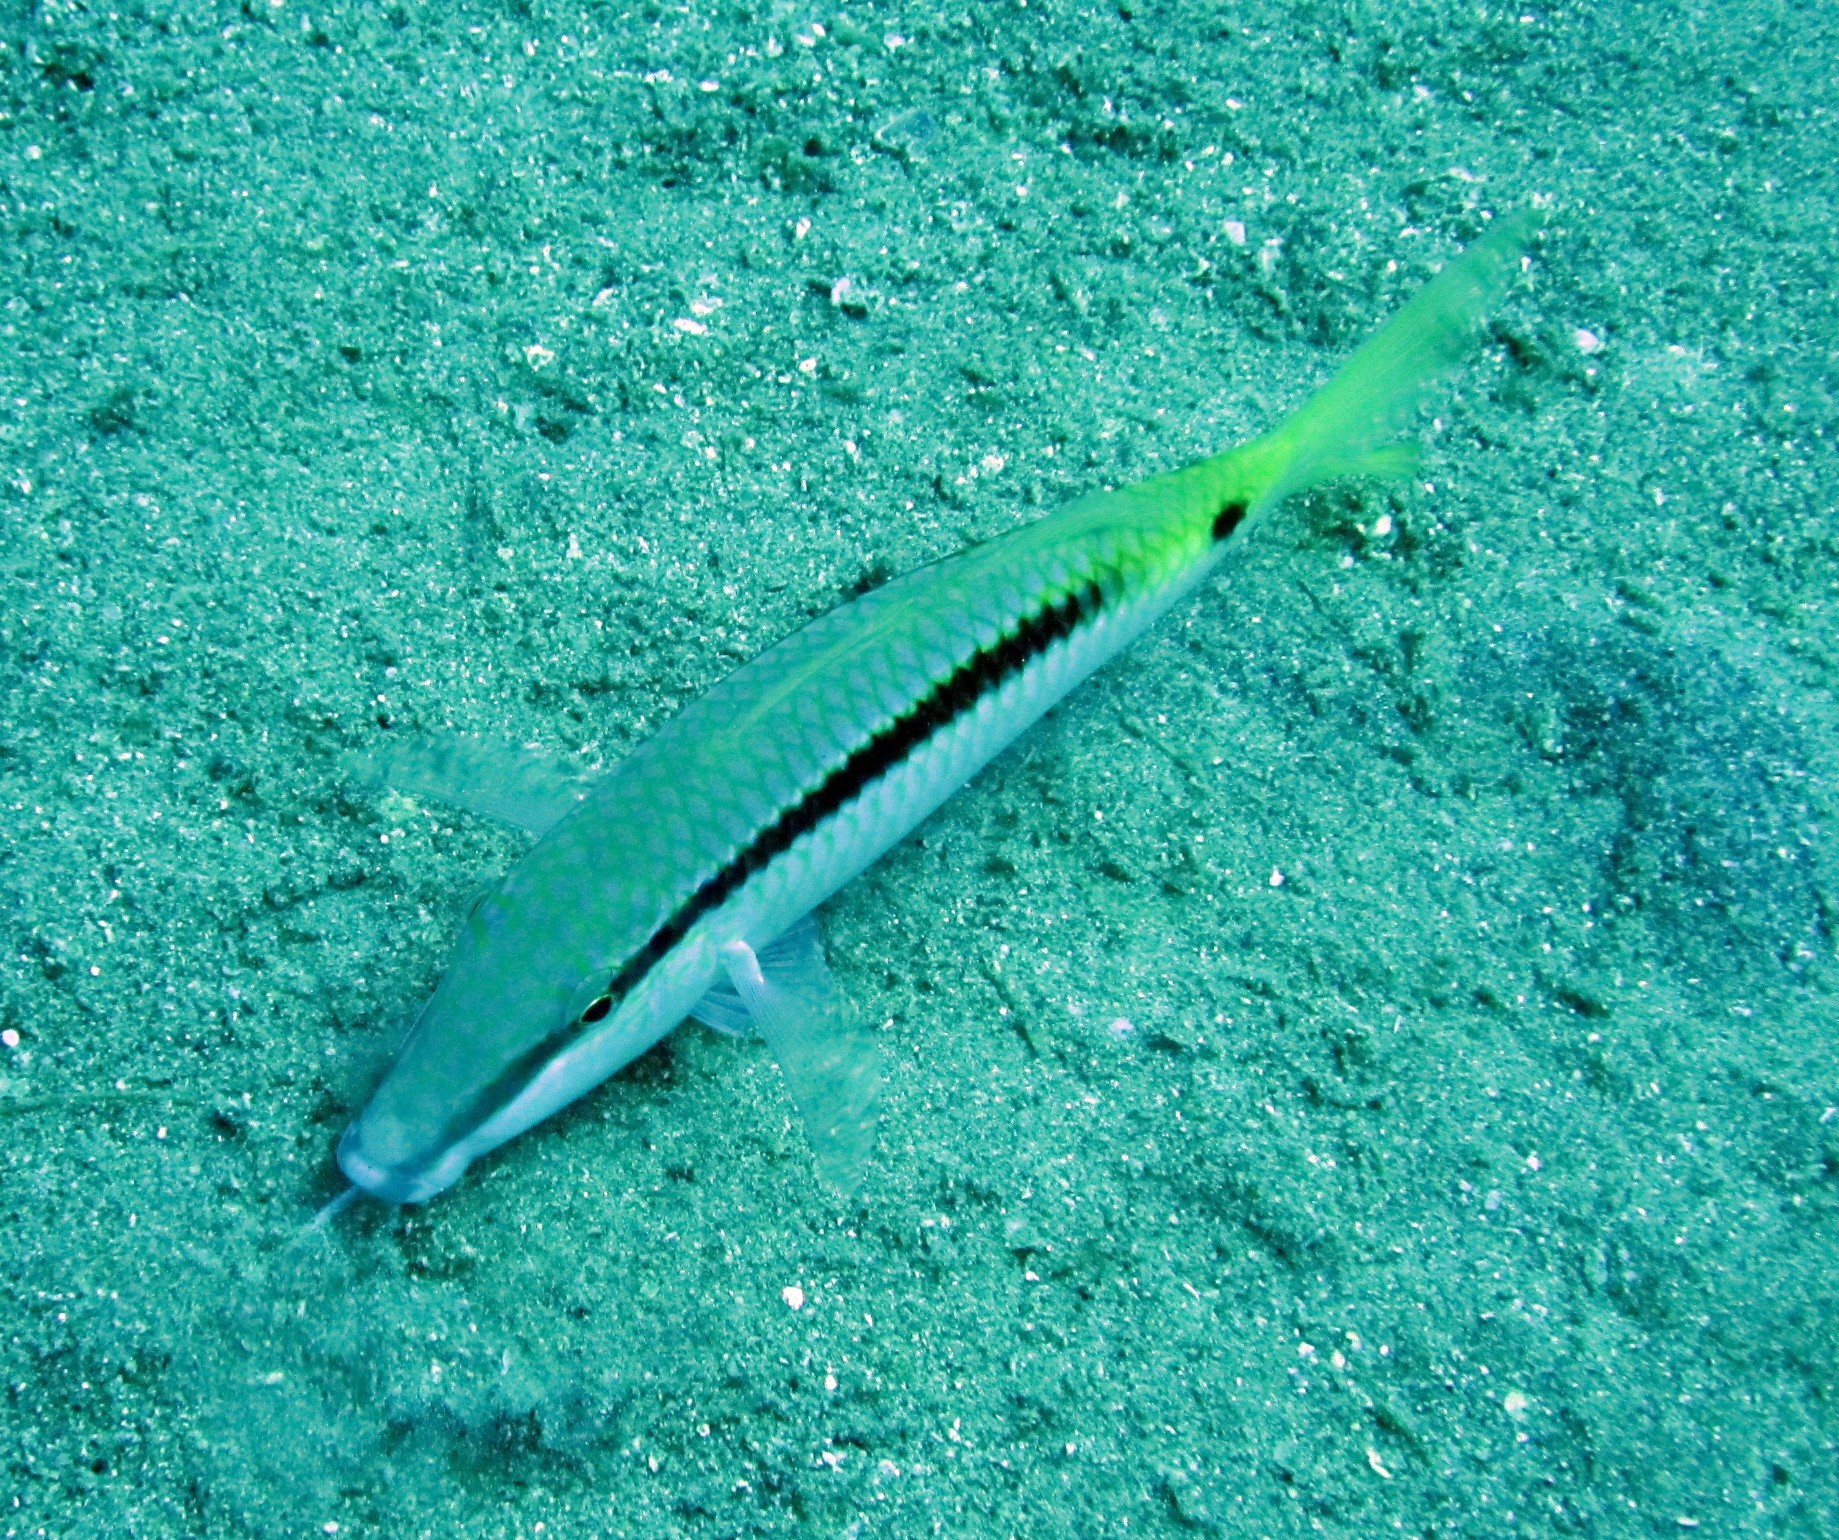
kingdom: Animalia
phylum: Chordata
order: Perciformes
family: Mullidae
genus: Parupeneus
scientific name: Parupeneus forsskali
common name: Red sea goatfish
